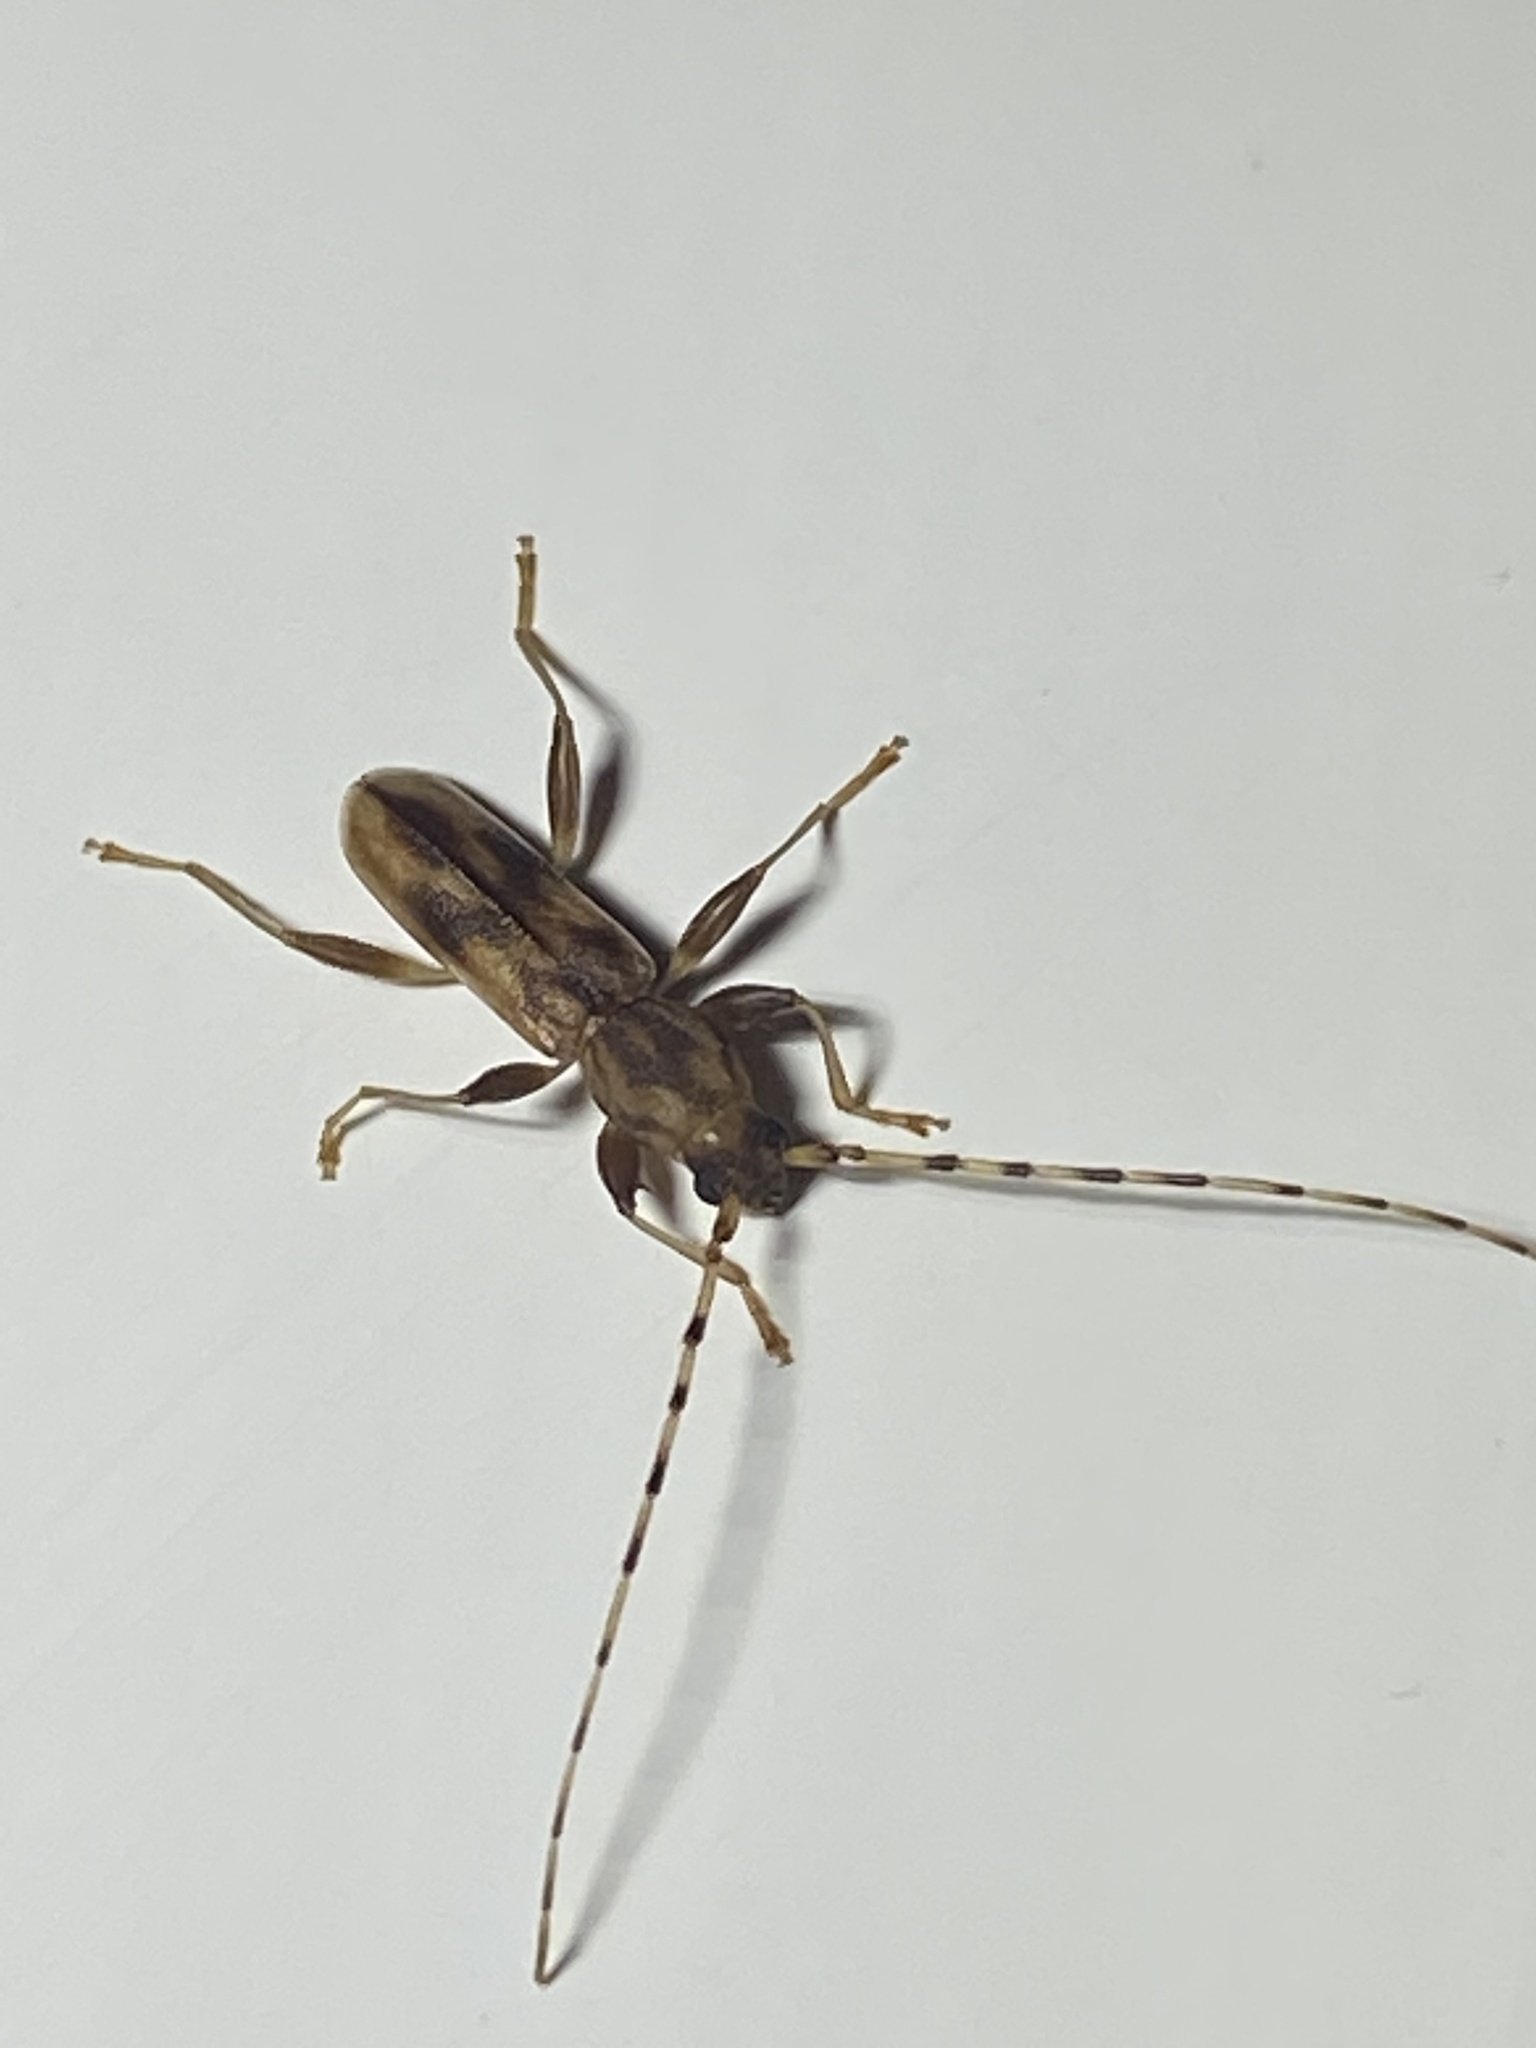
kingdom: Animalia
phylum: Arthropoda
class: Insecta
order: Coleoptera
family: Cerambycidae
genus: Curius
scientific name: Curius dentatus
